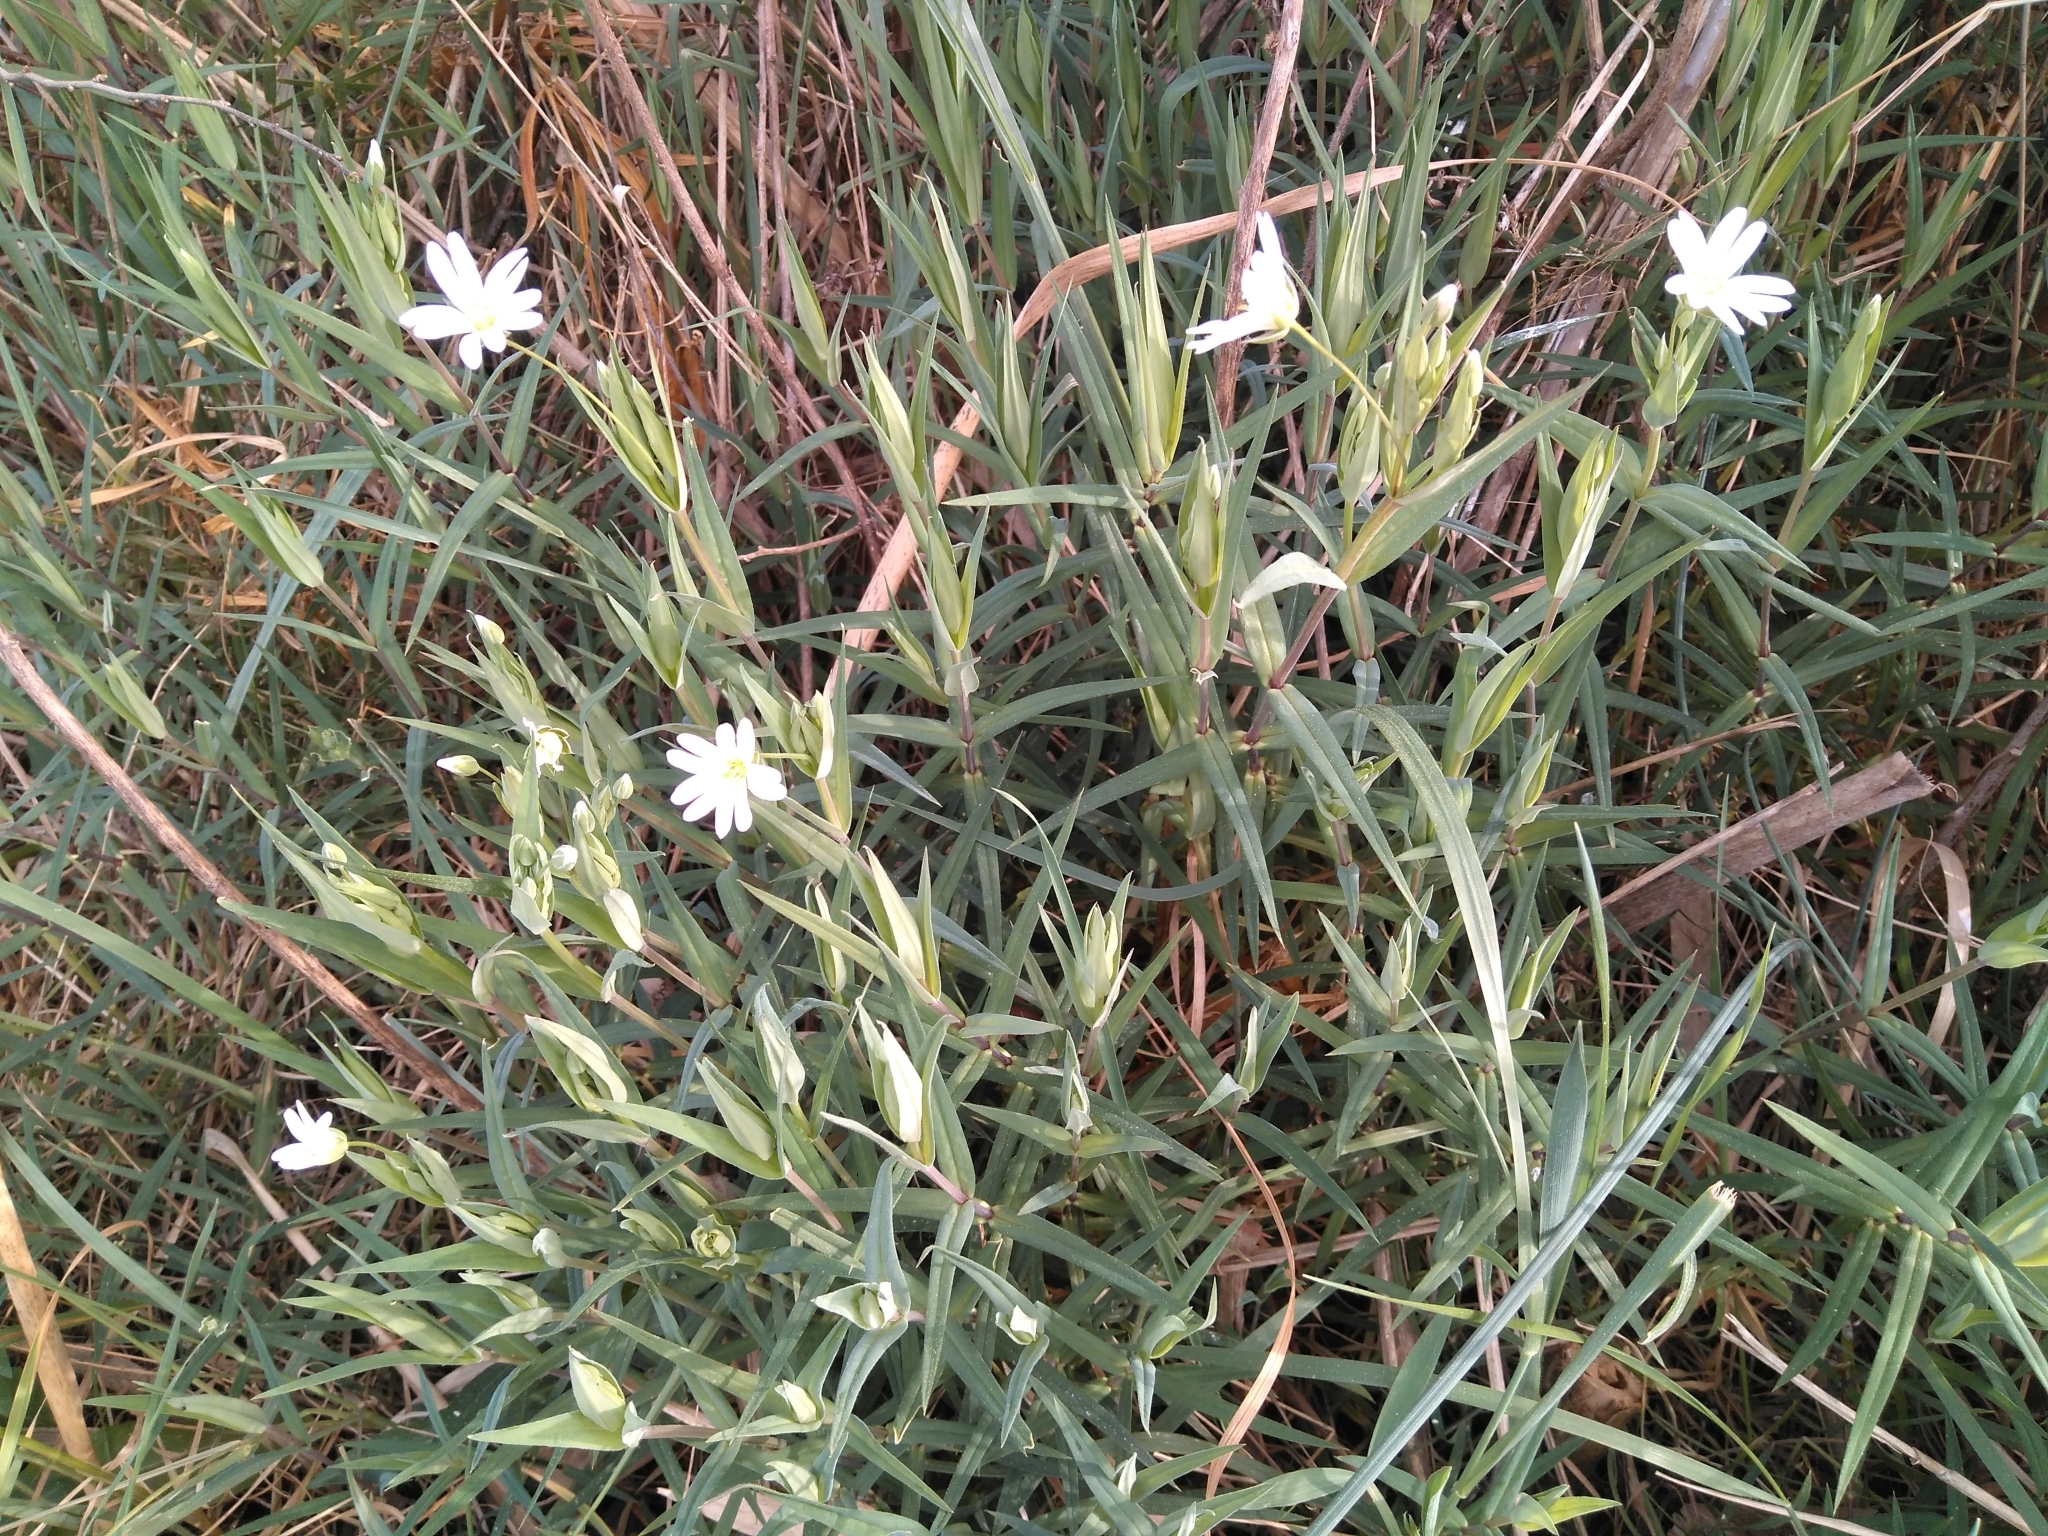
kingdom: Plantae
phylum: Tracheophyta
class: Magnoliopsida
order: Caryophyllales
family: Caryophyllaceae
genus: Rabelera
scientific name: Rabelera holostea
